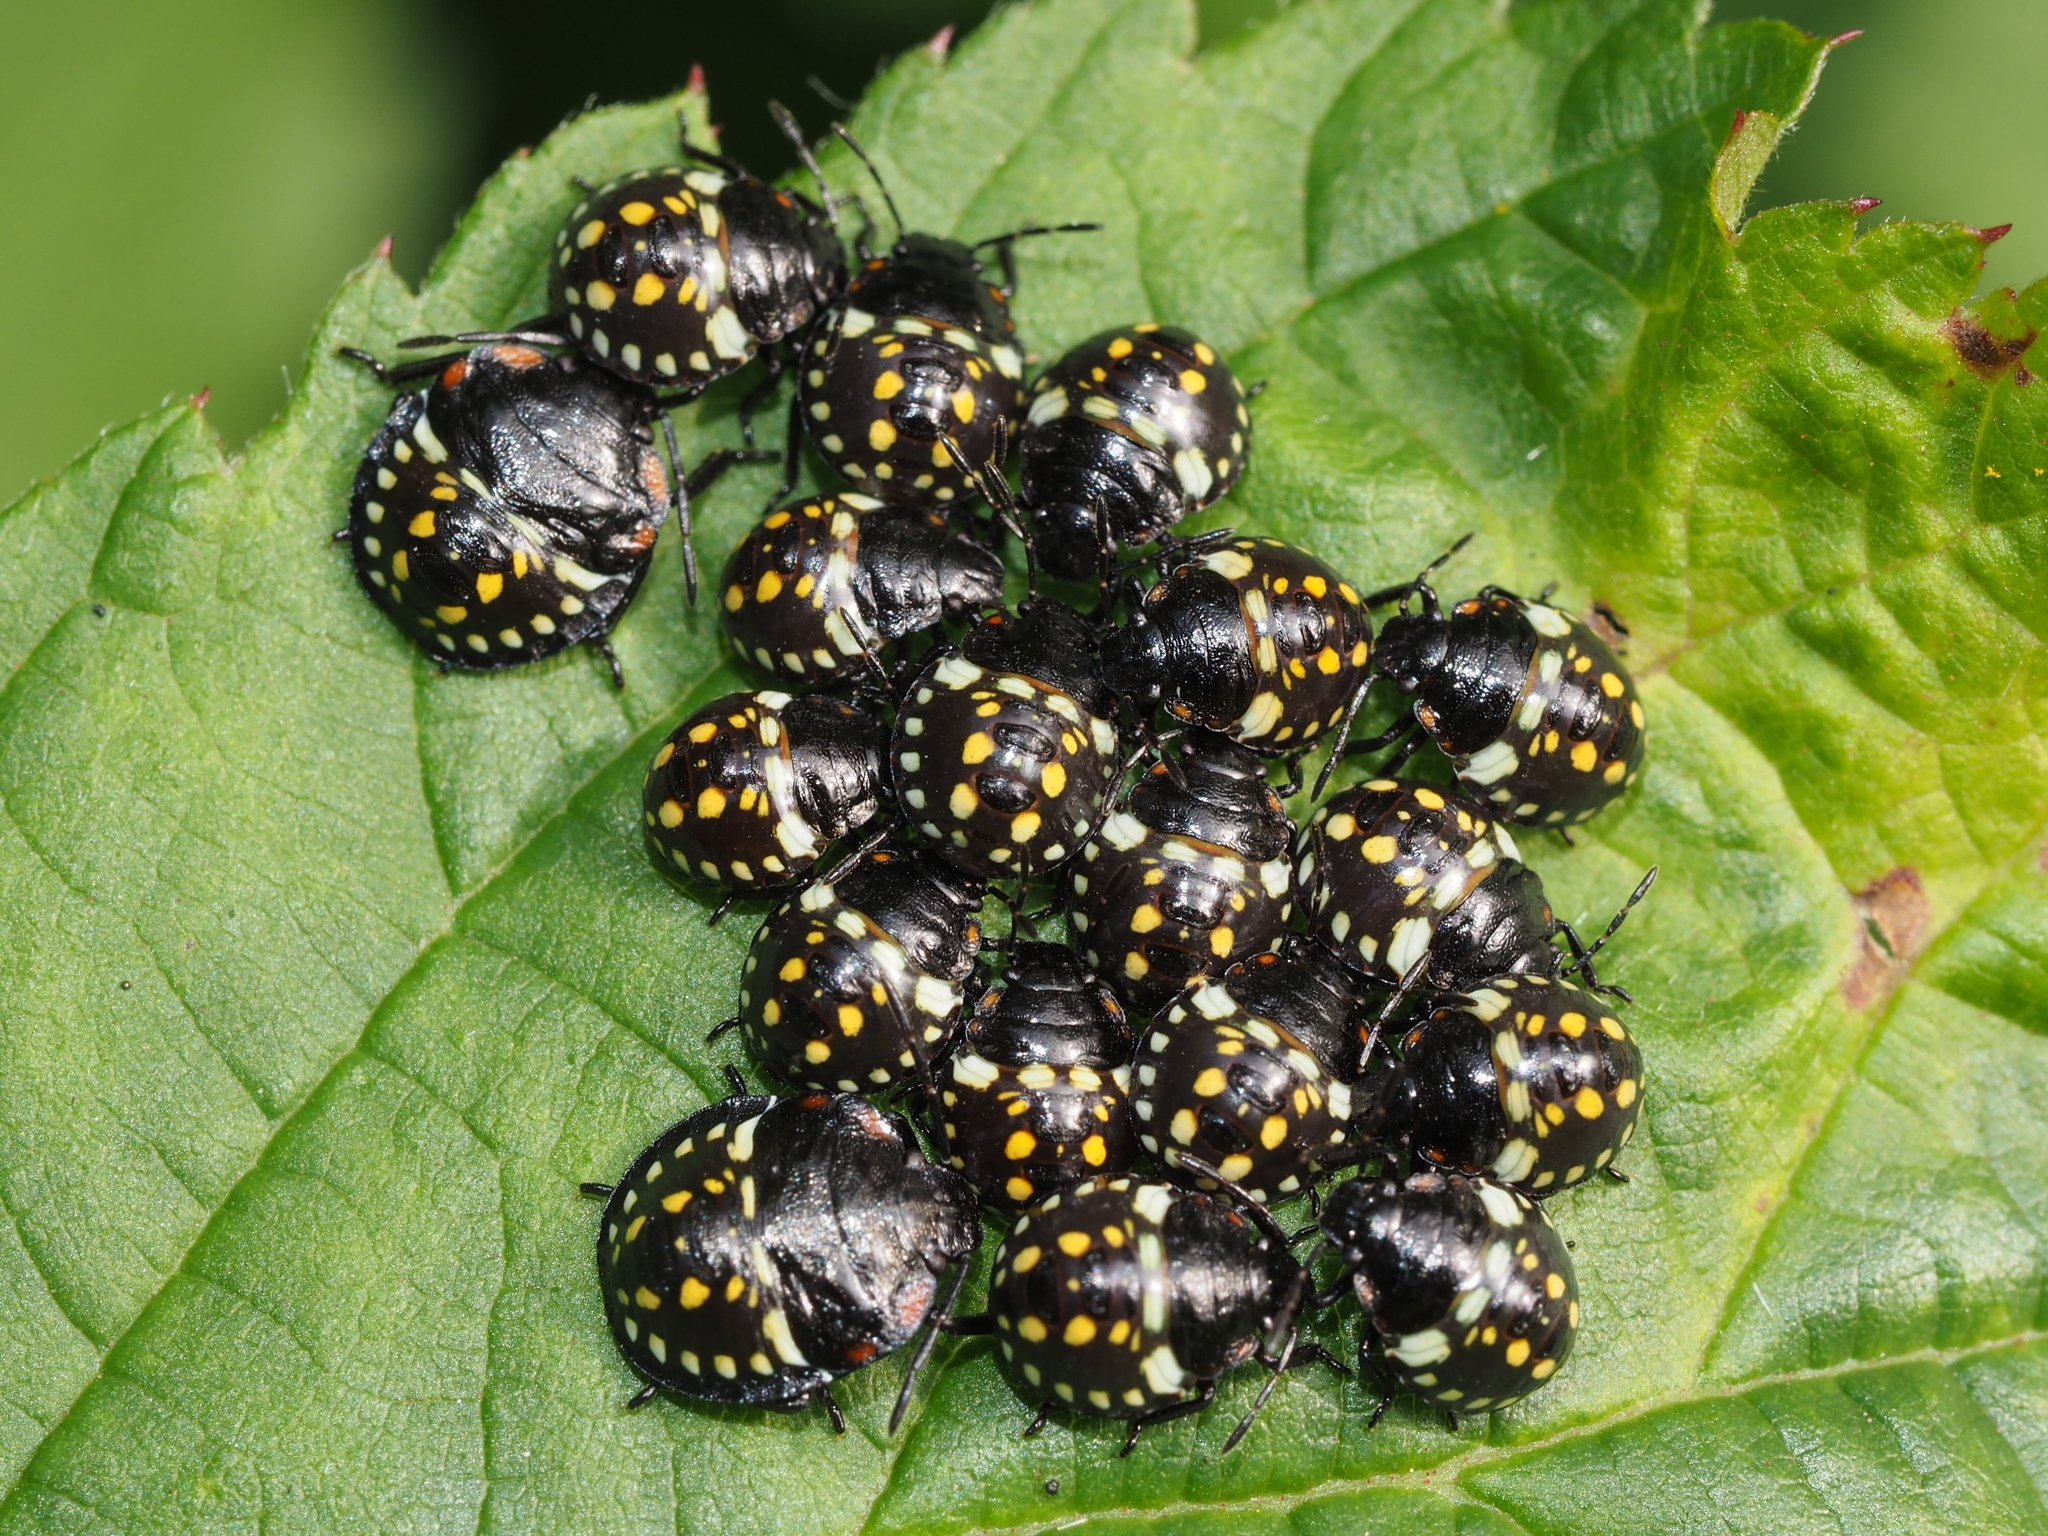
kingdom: Animalia
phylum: Arthropoda
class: Insecta
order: Hemiptera
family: Pentatomidae
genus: Nezara
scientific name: Nezara viridula
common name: Southern green stink bug
